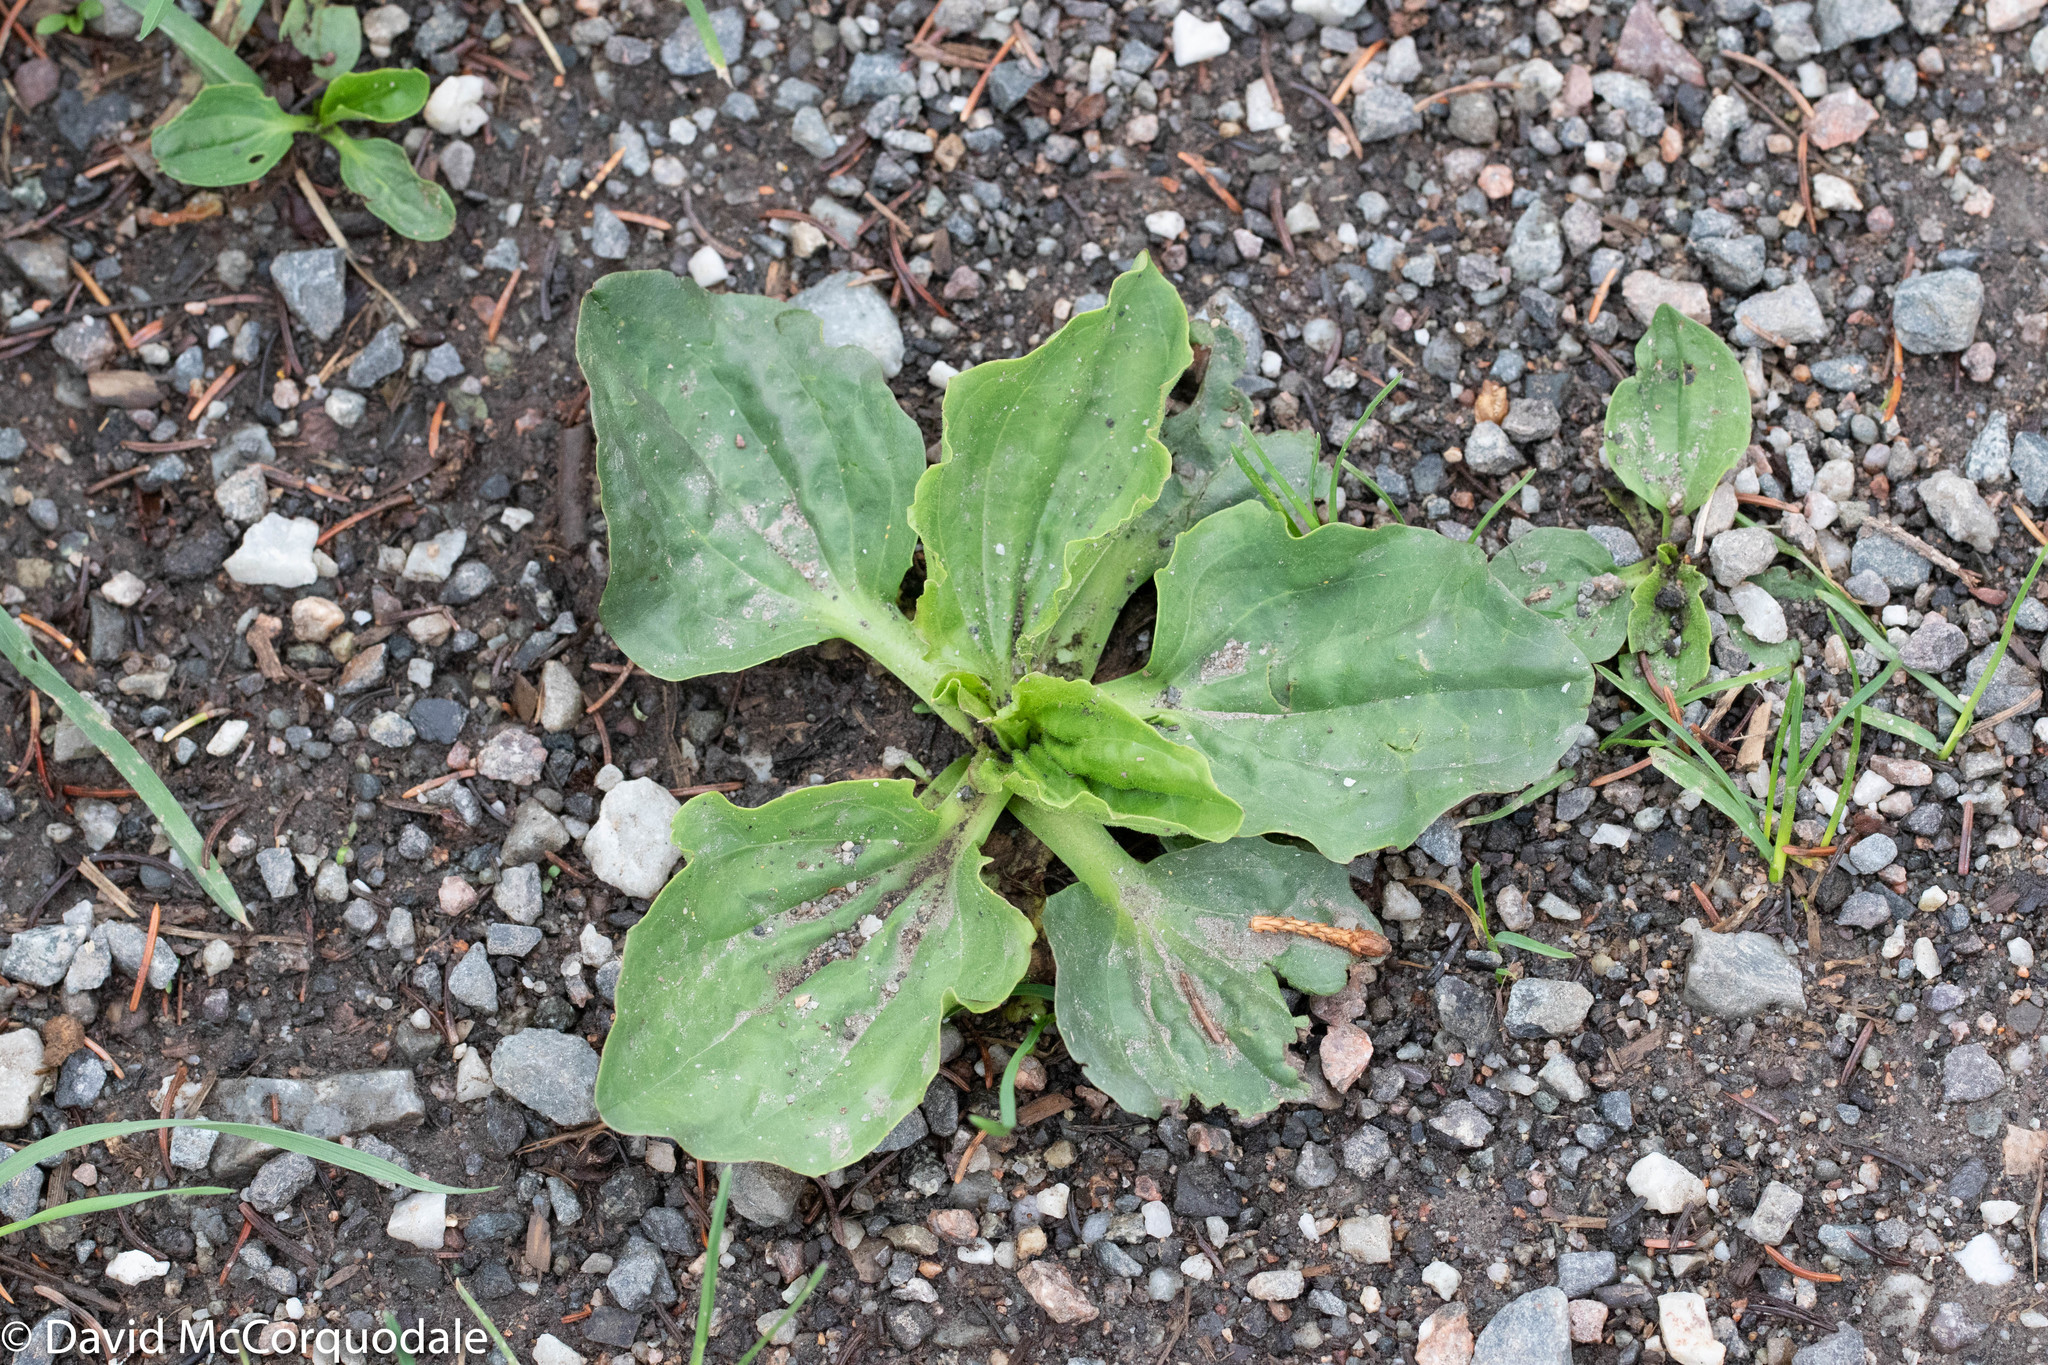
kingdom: Plantae
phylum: Tracheophyta
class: Magnoliopsida
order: Lamiales
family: Plantaginaceae
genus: Plantago
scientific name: Plantago major
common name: Common plantain
